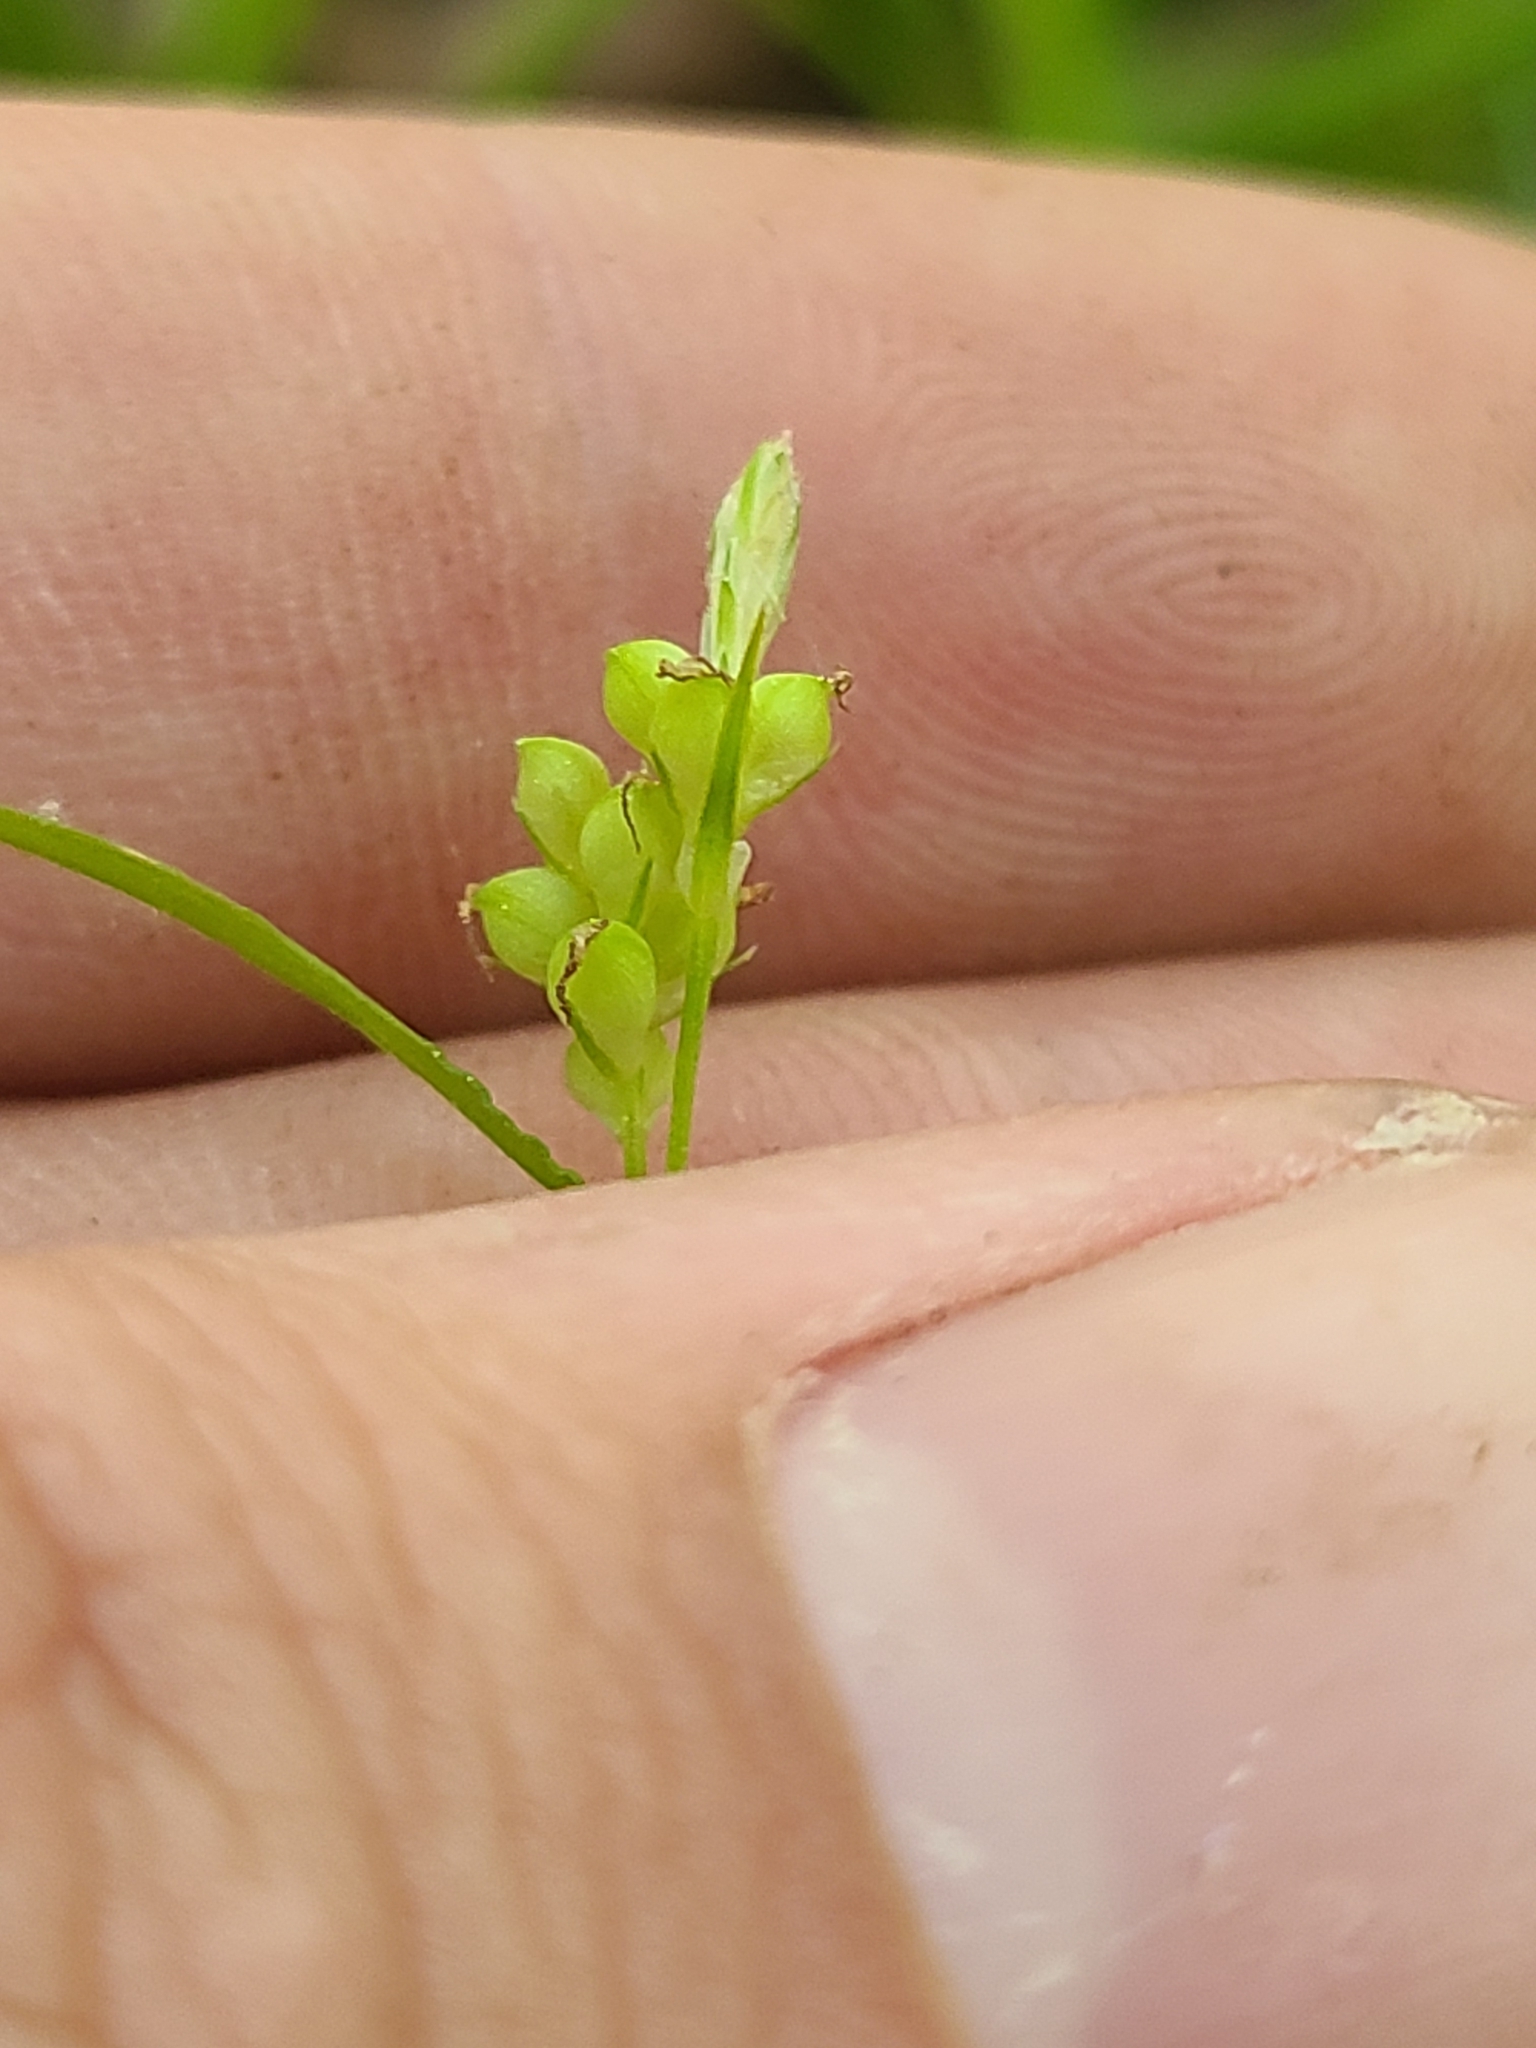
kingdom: Plantae
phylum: Tracheophyta
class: Liliopsida
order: Poales
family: Cyperaceae
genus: Carex
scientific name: Carex blanda
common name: Bland sedge
